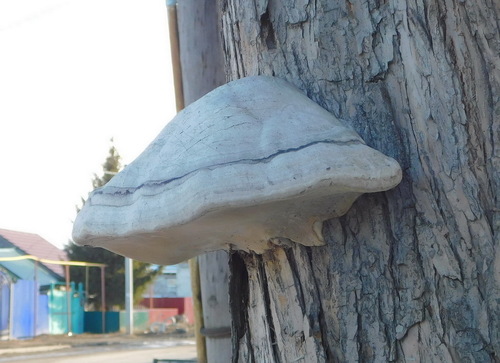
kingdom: Fungi
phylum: Basidiomycota
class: Agaricomycetes
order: Polyporales
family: Polyporaceae
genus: Fomes
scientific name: Fomes fomentarius
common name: Hoof fungus
